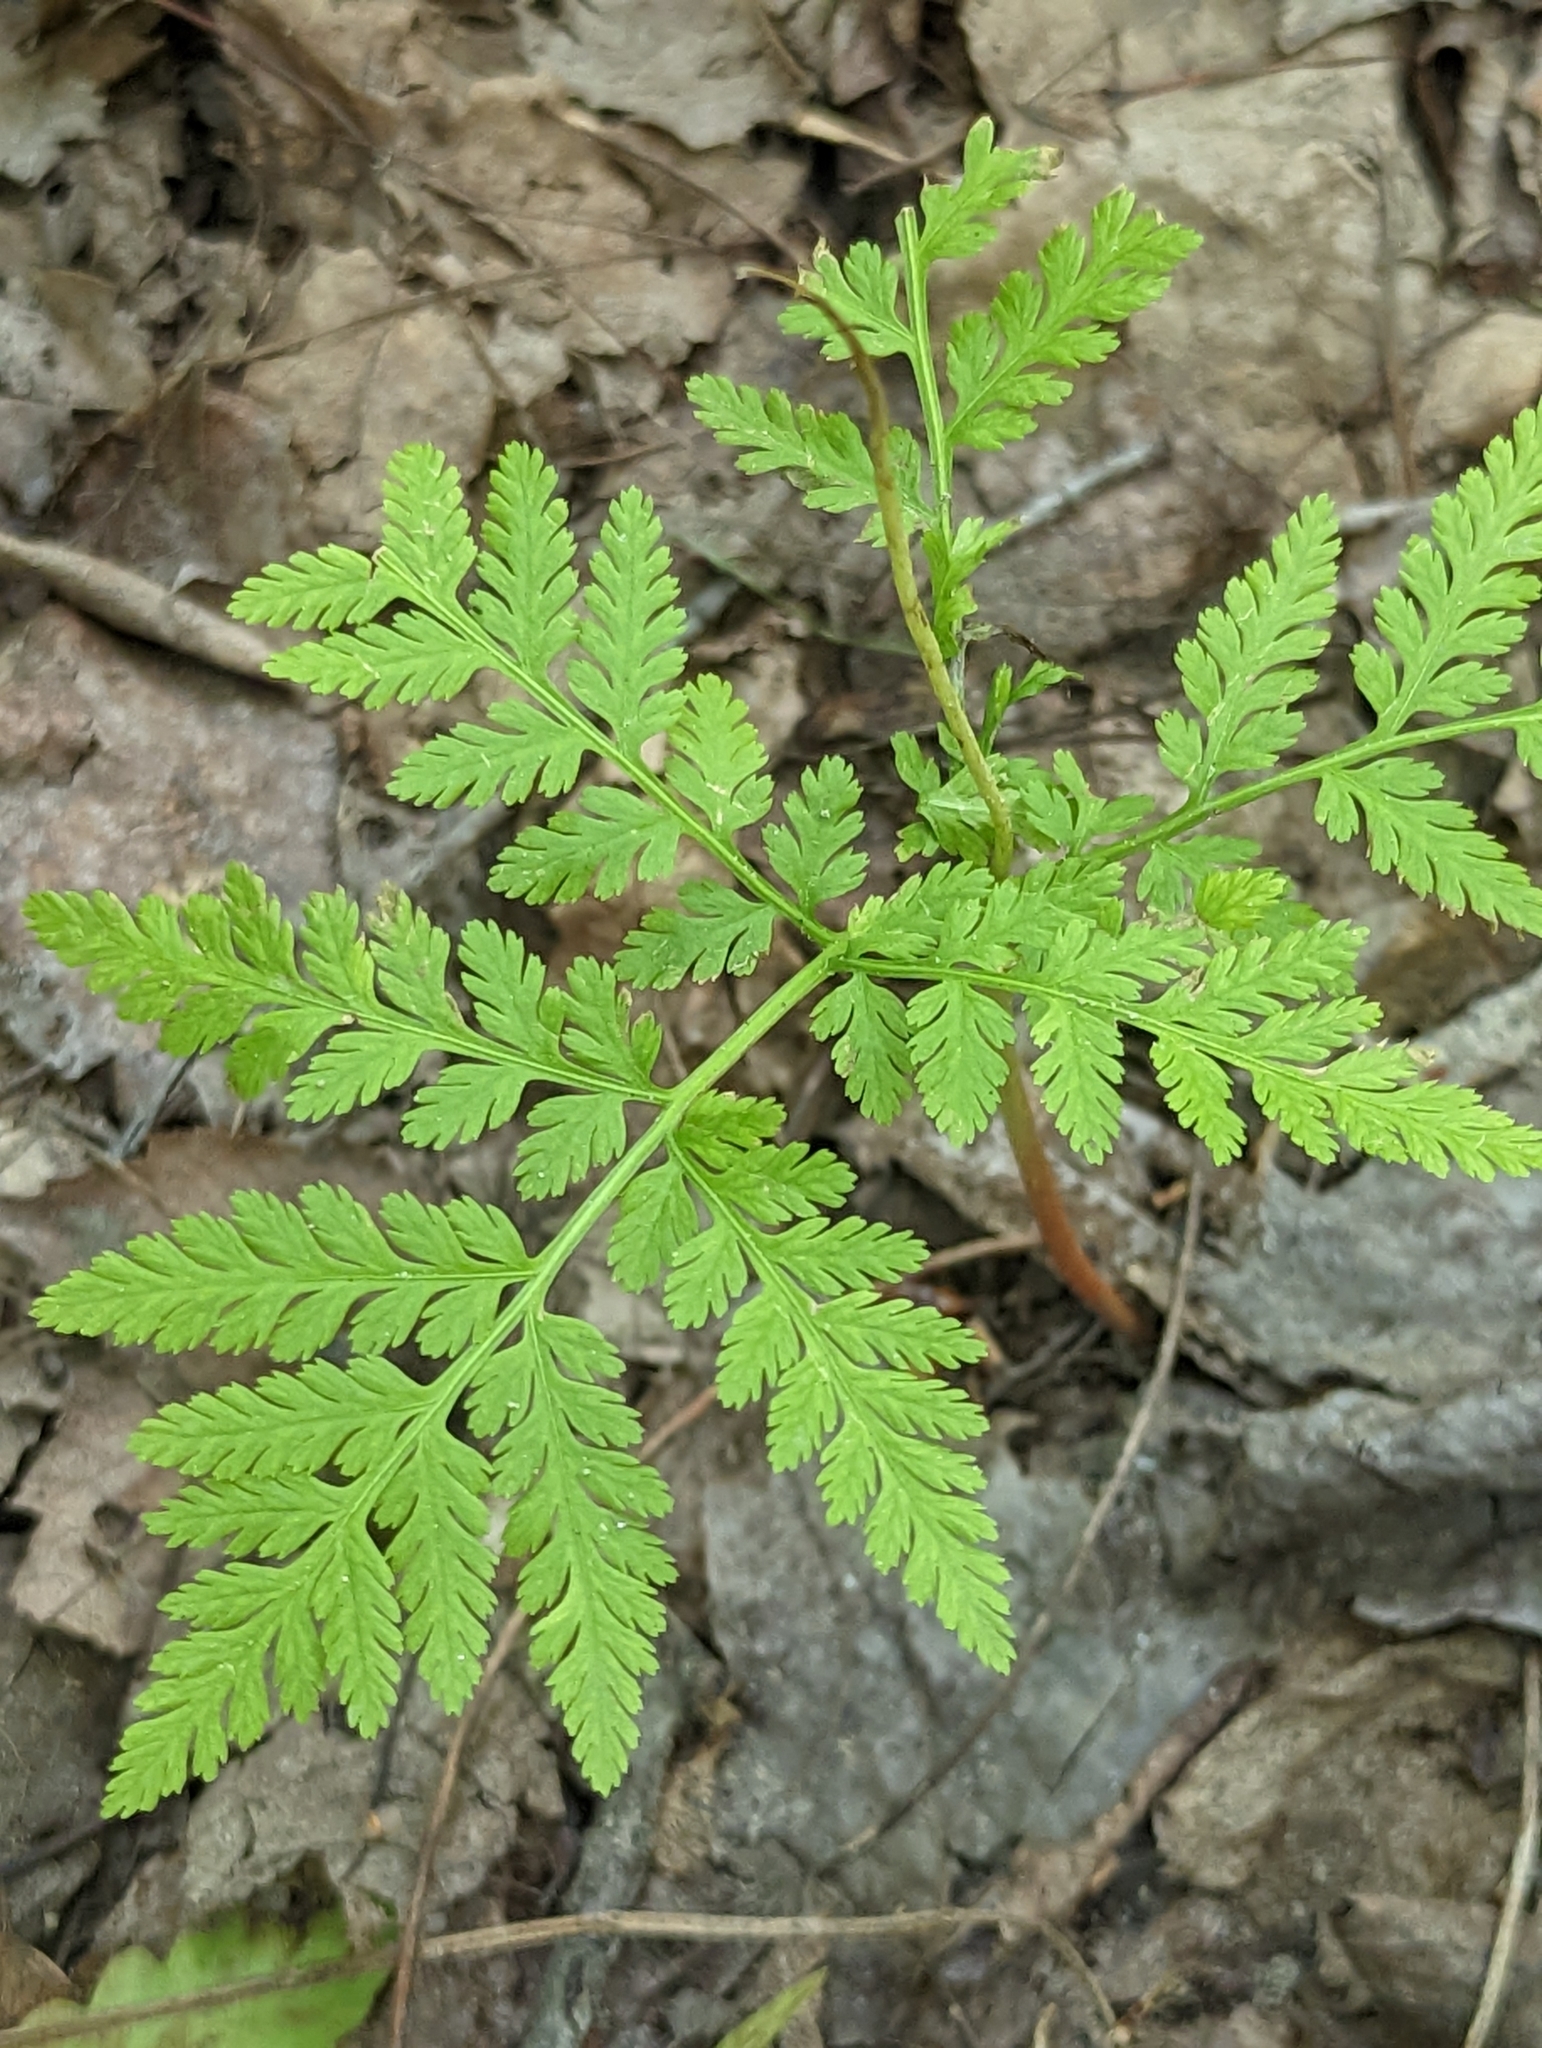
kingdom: Plantae
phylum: Tracheophyta
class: Polypodiopsida
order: Ophioglossales
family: Ophioglossaceae
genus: Botrypus
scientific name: Botrypus virginianus
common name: Common grapefern
